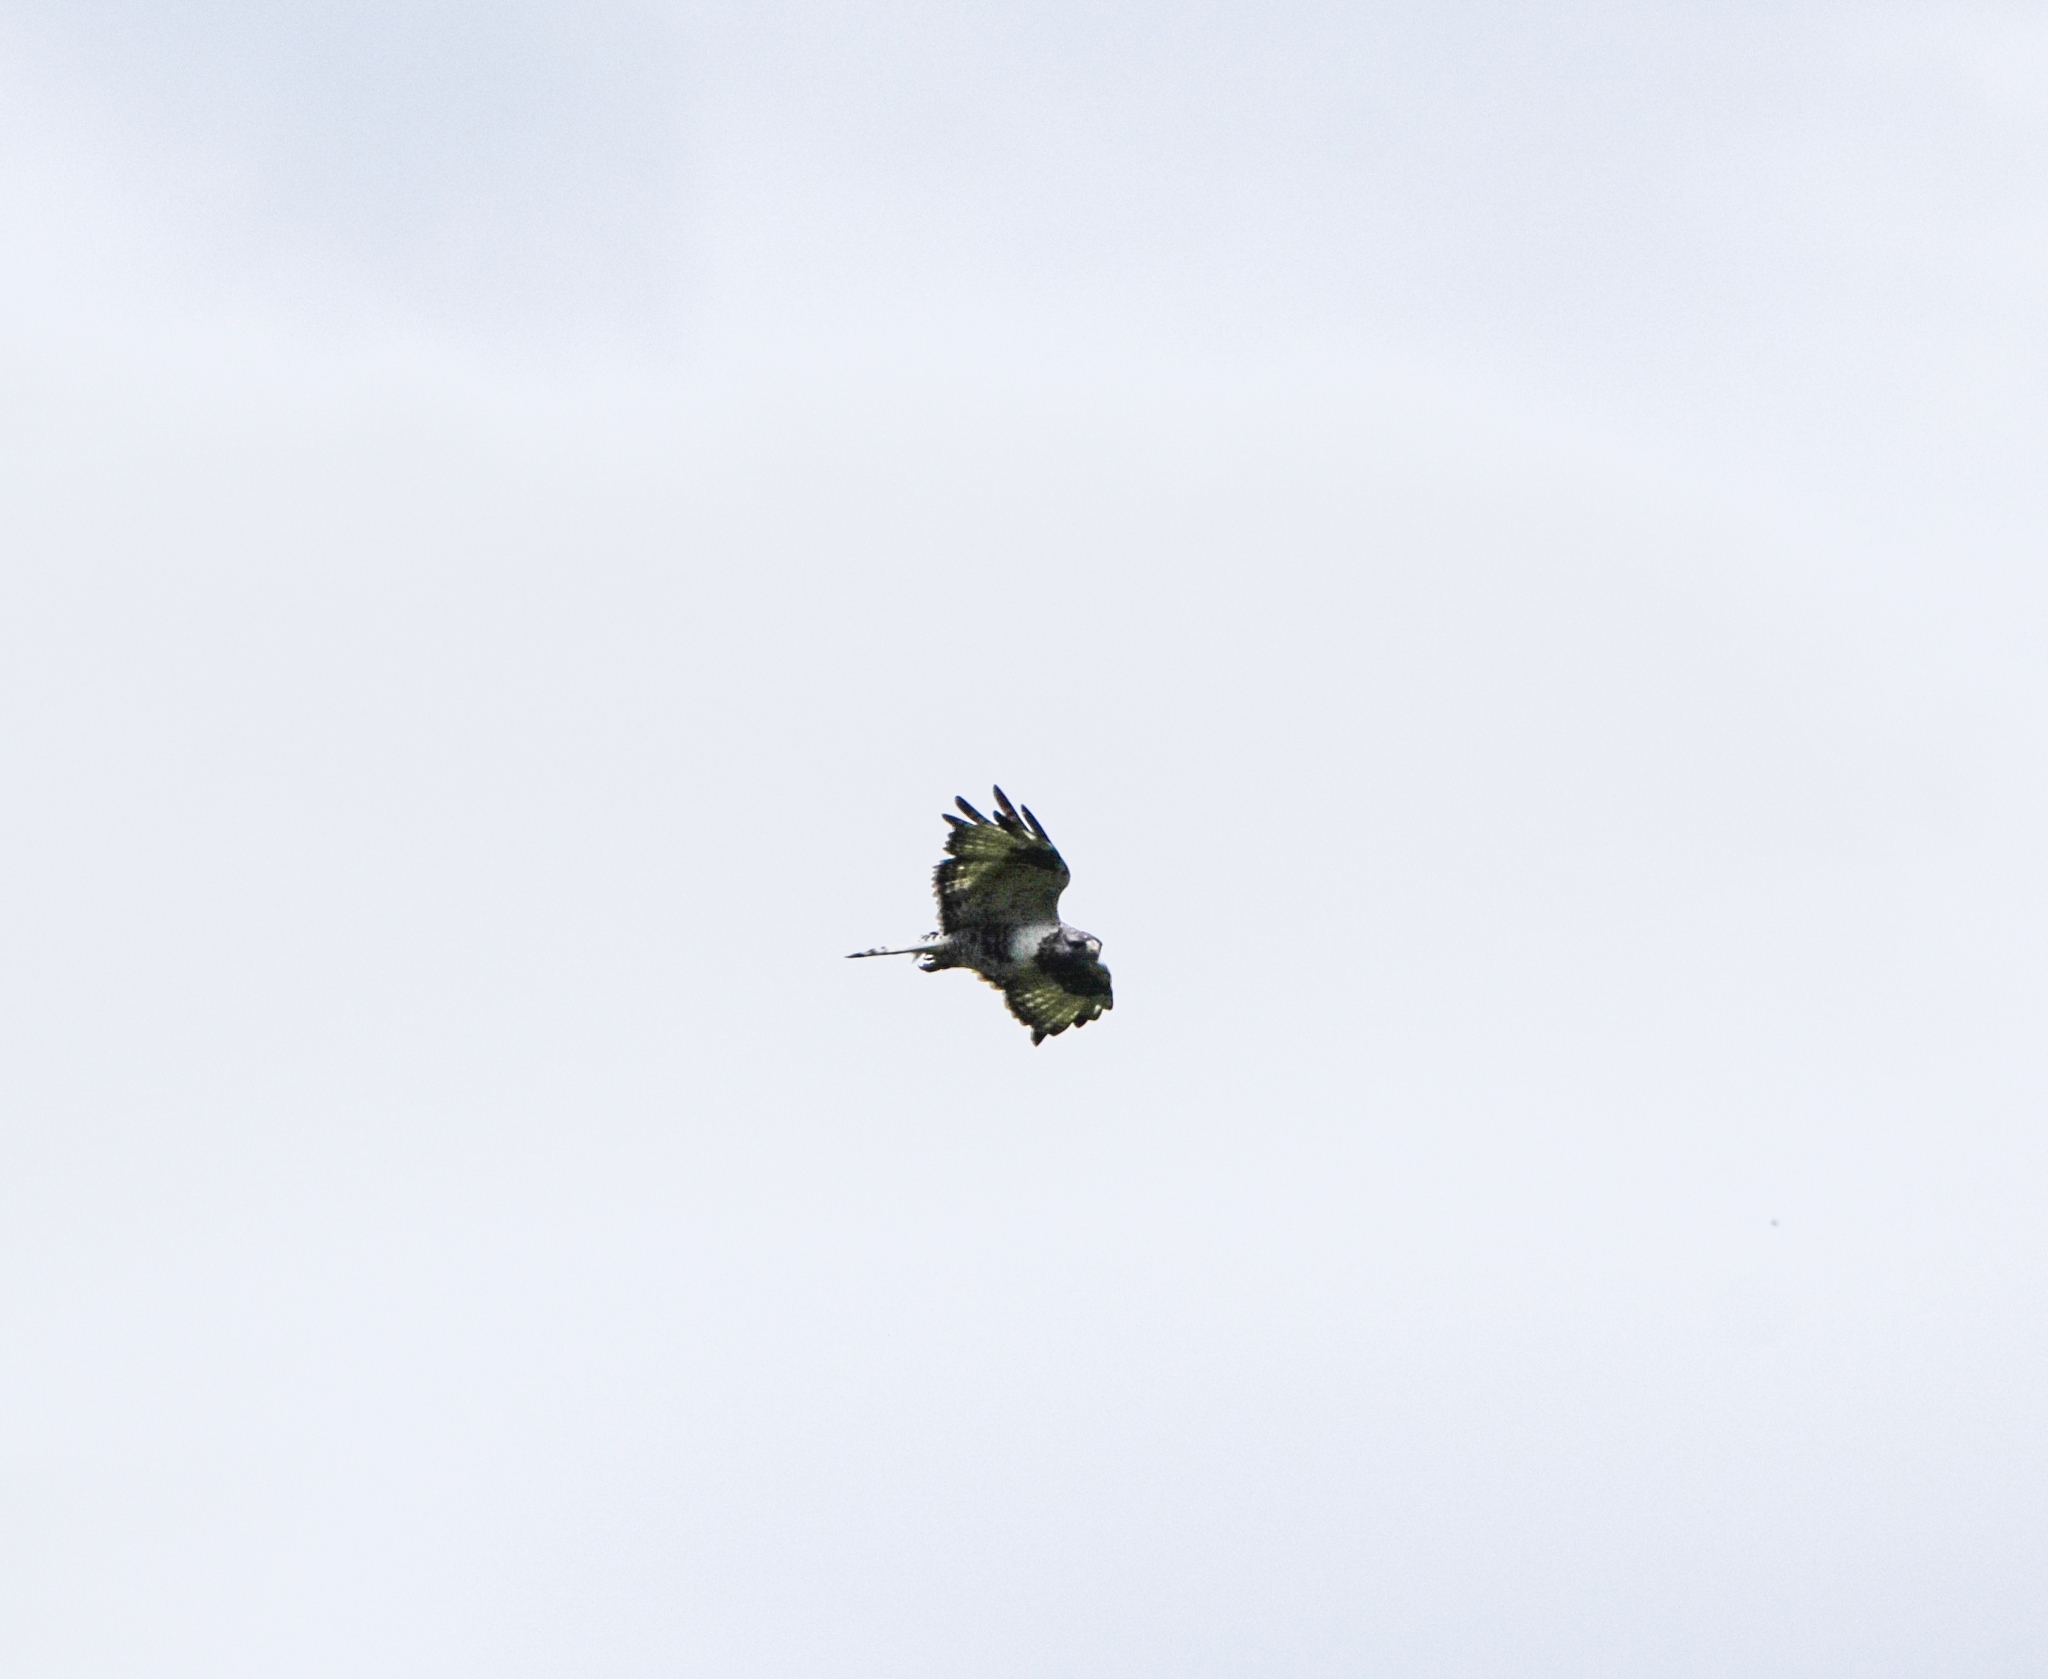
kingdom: Animalia
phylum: Chordata
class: Aves
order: Accipitriformes
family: Accipitridae
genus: Buteo
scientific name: Buteo lagopus
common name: Rough-legged buzzard
